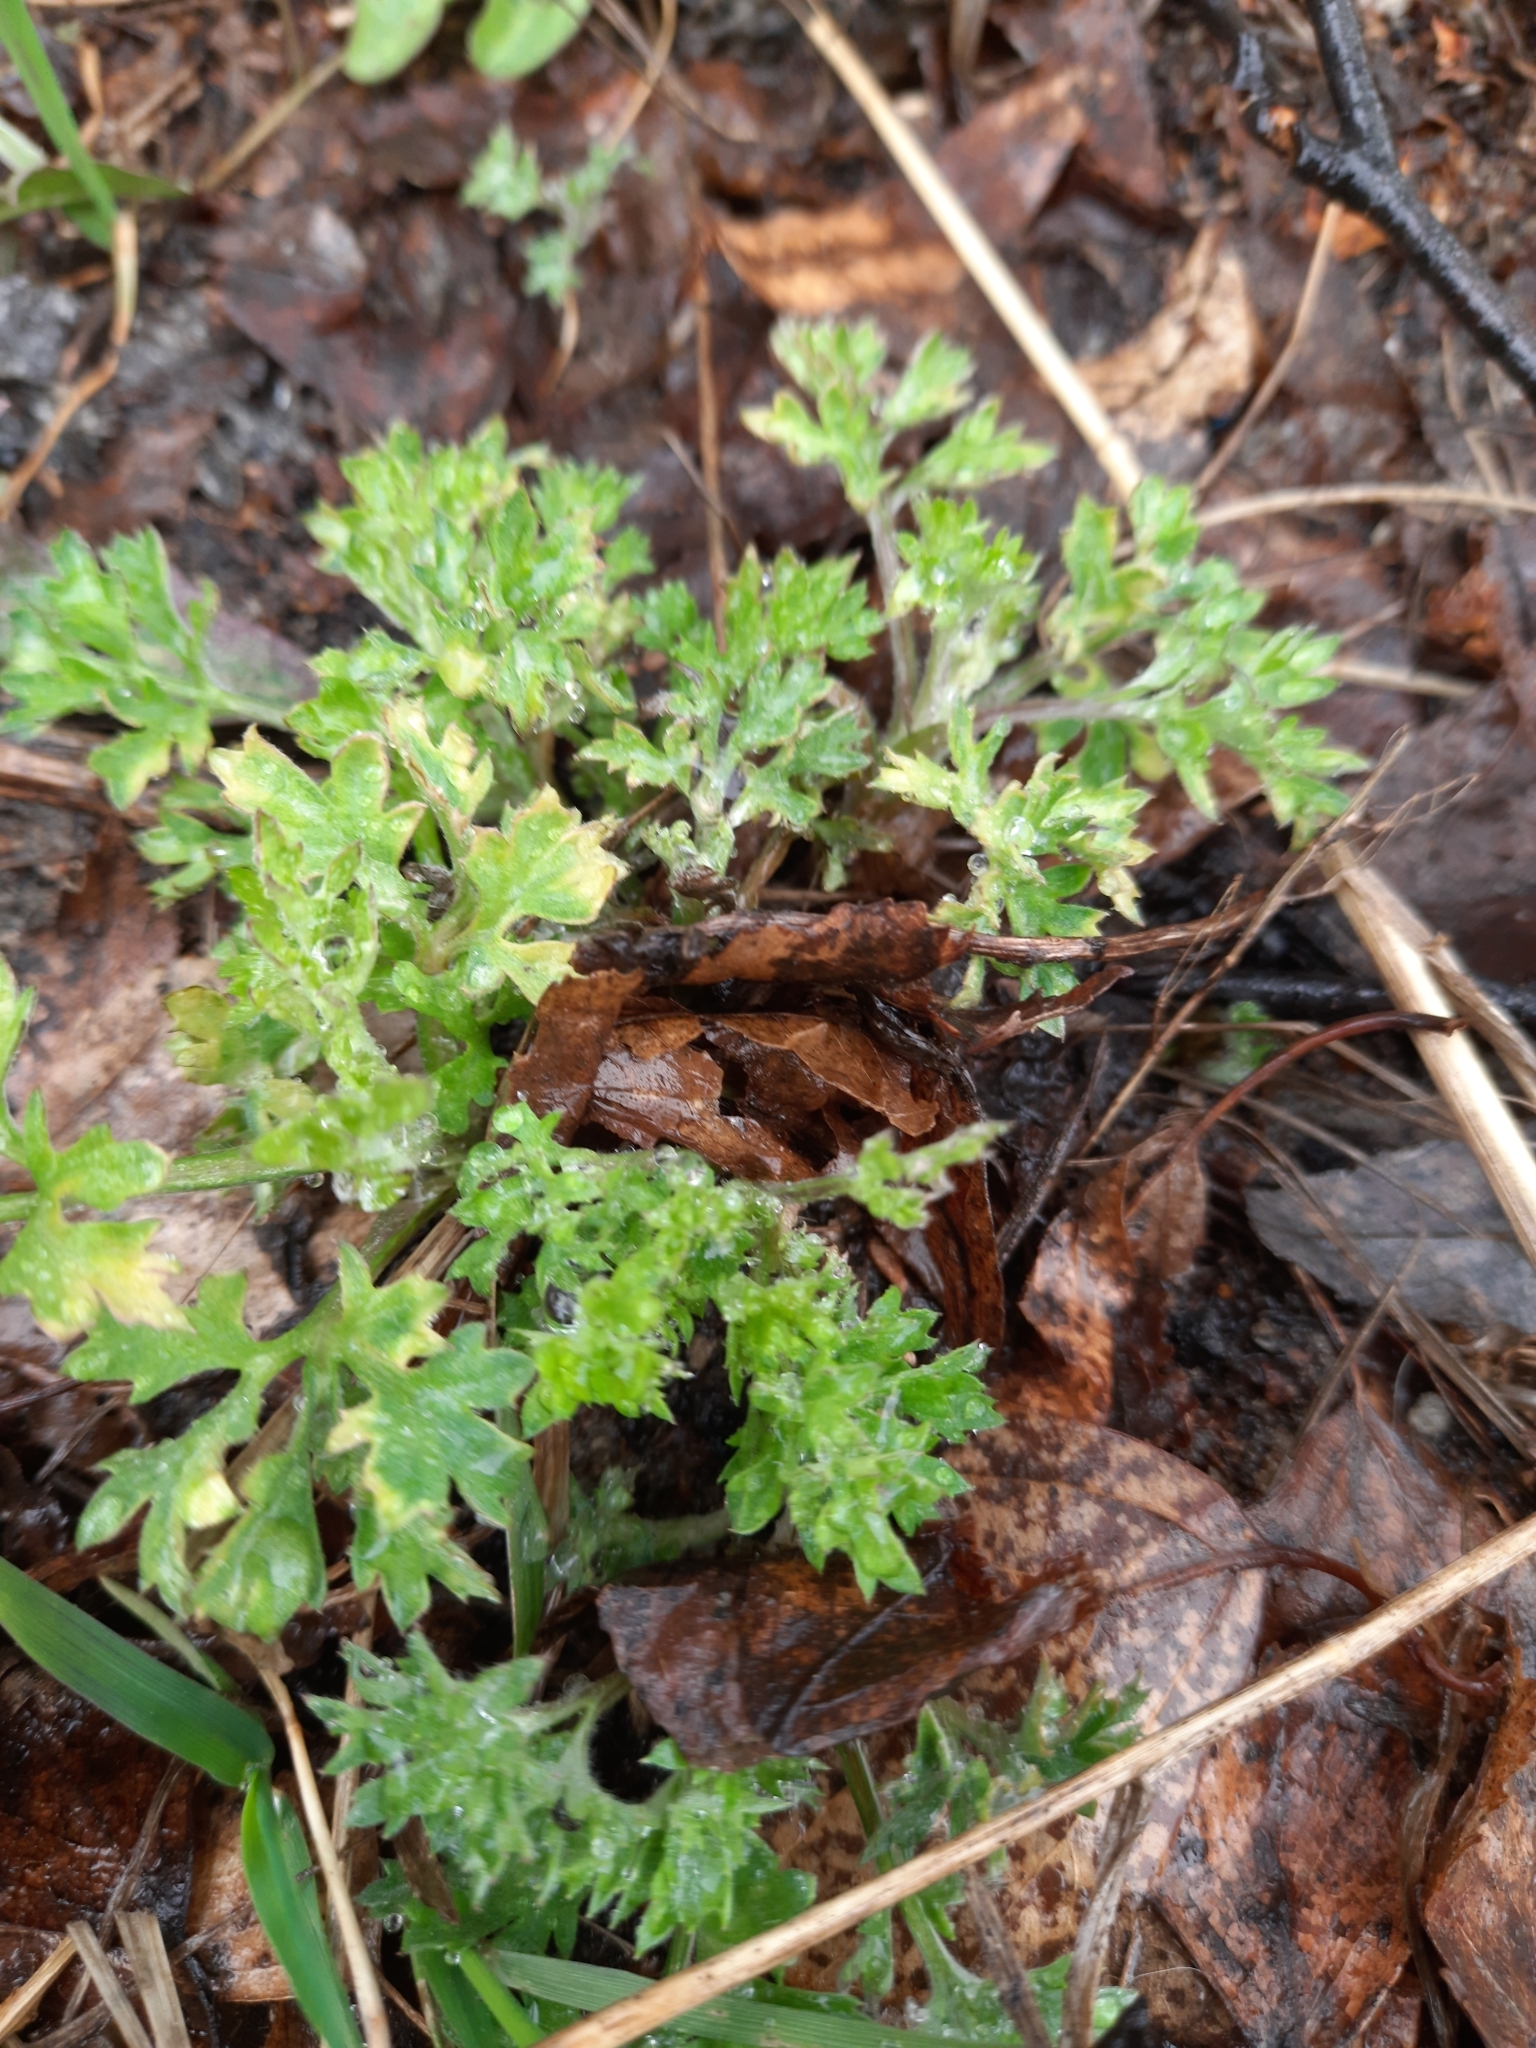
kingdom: Plantae
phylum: Tracheophyta
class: Magnoliopsida
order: Asterales
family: Asteraceae
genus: Artemisia
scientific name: Artemisia vulgaris
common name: Mugwort
